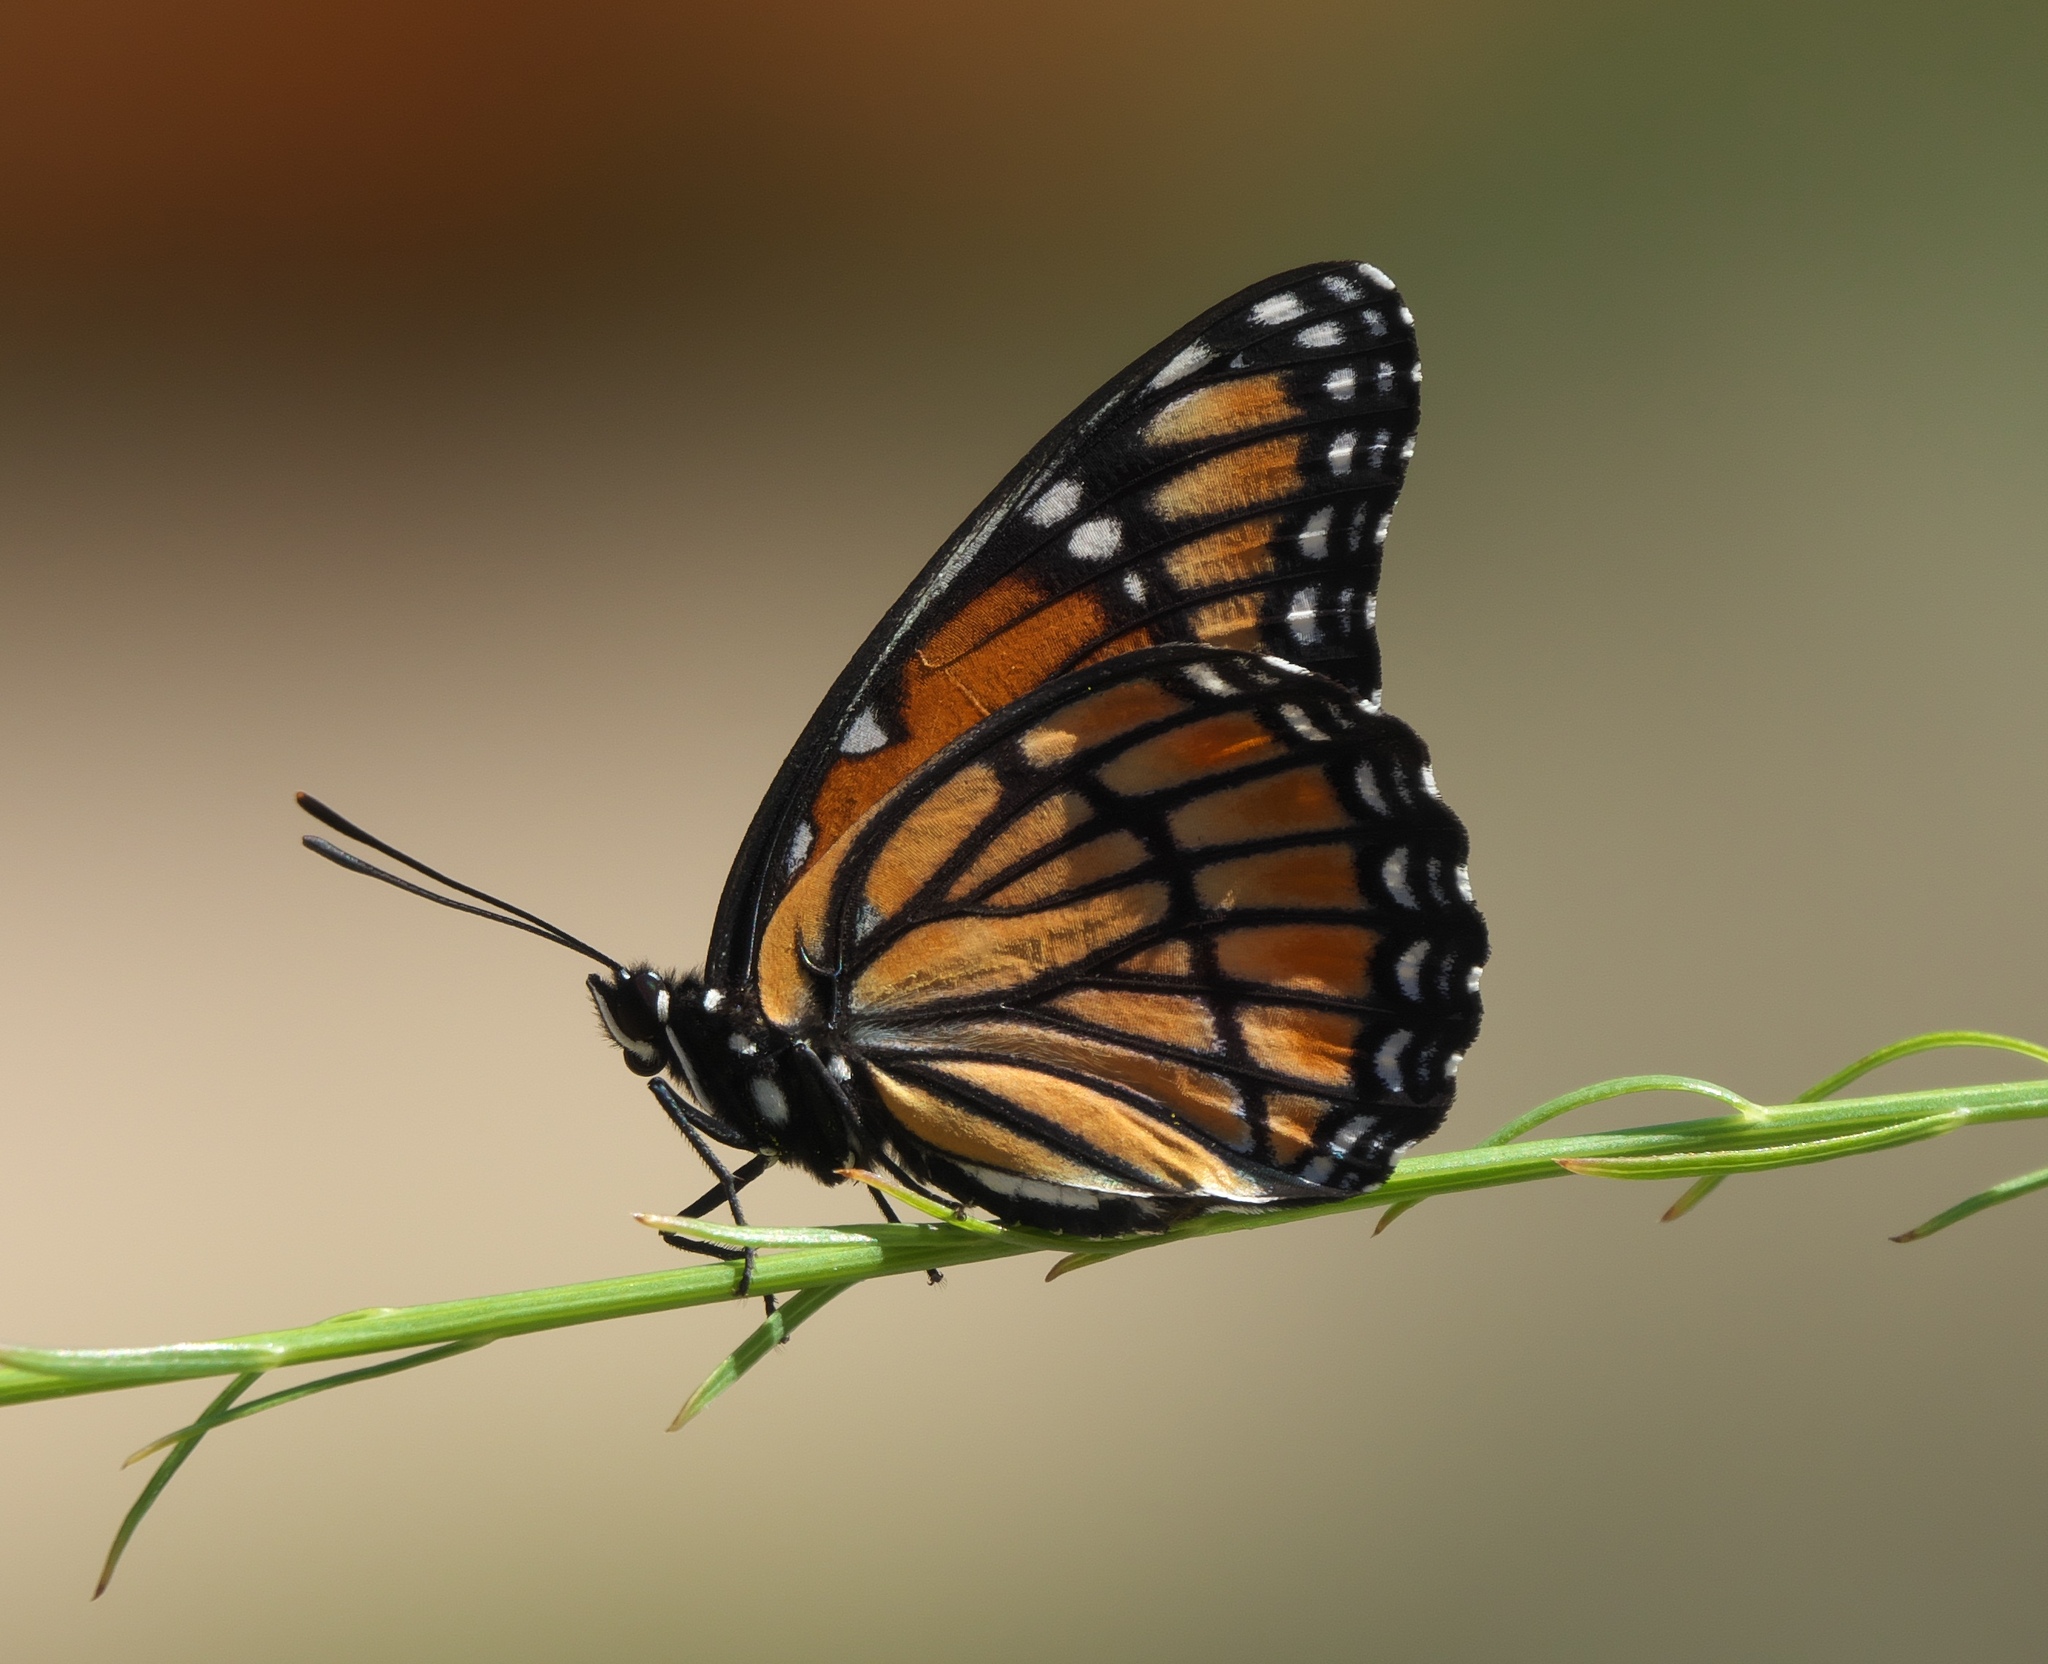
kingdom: Animalia
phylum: Arthropoda
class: Insecta
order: Lepidoptera
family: Nymphalidae
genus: Limenitis
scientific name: Limenitis archippus
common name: Viceroy
